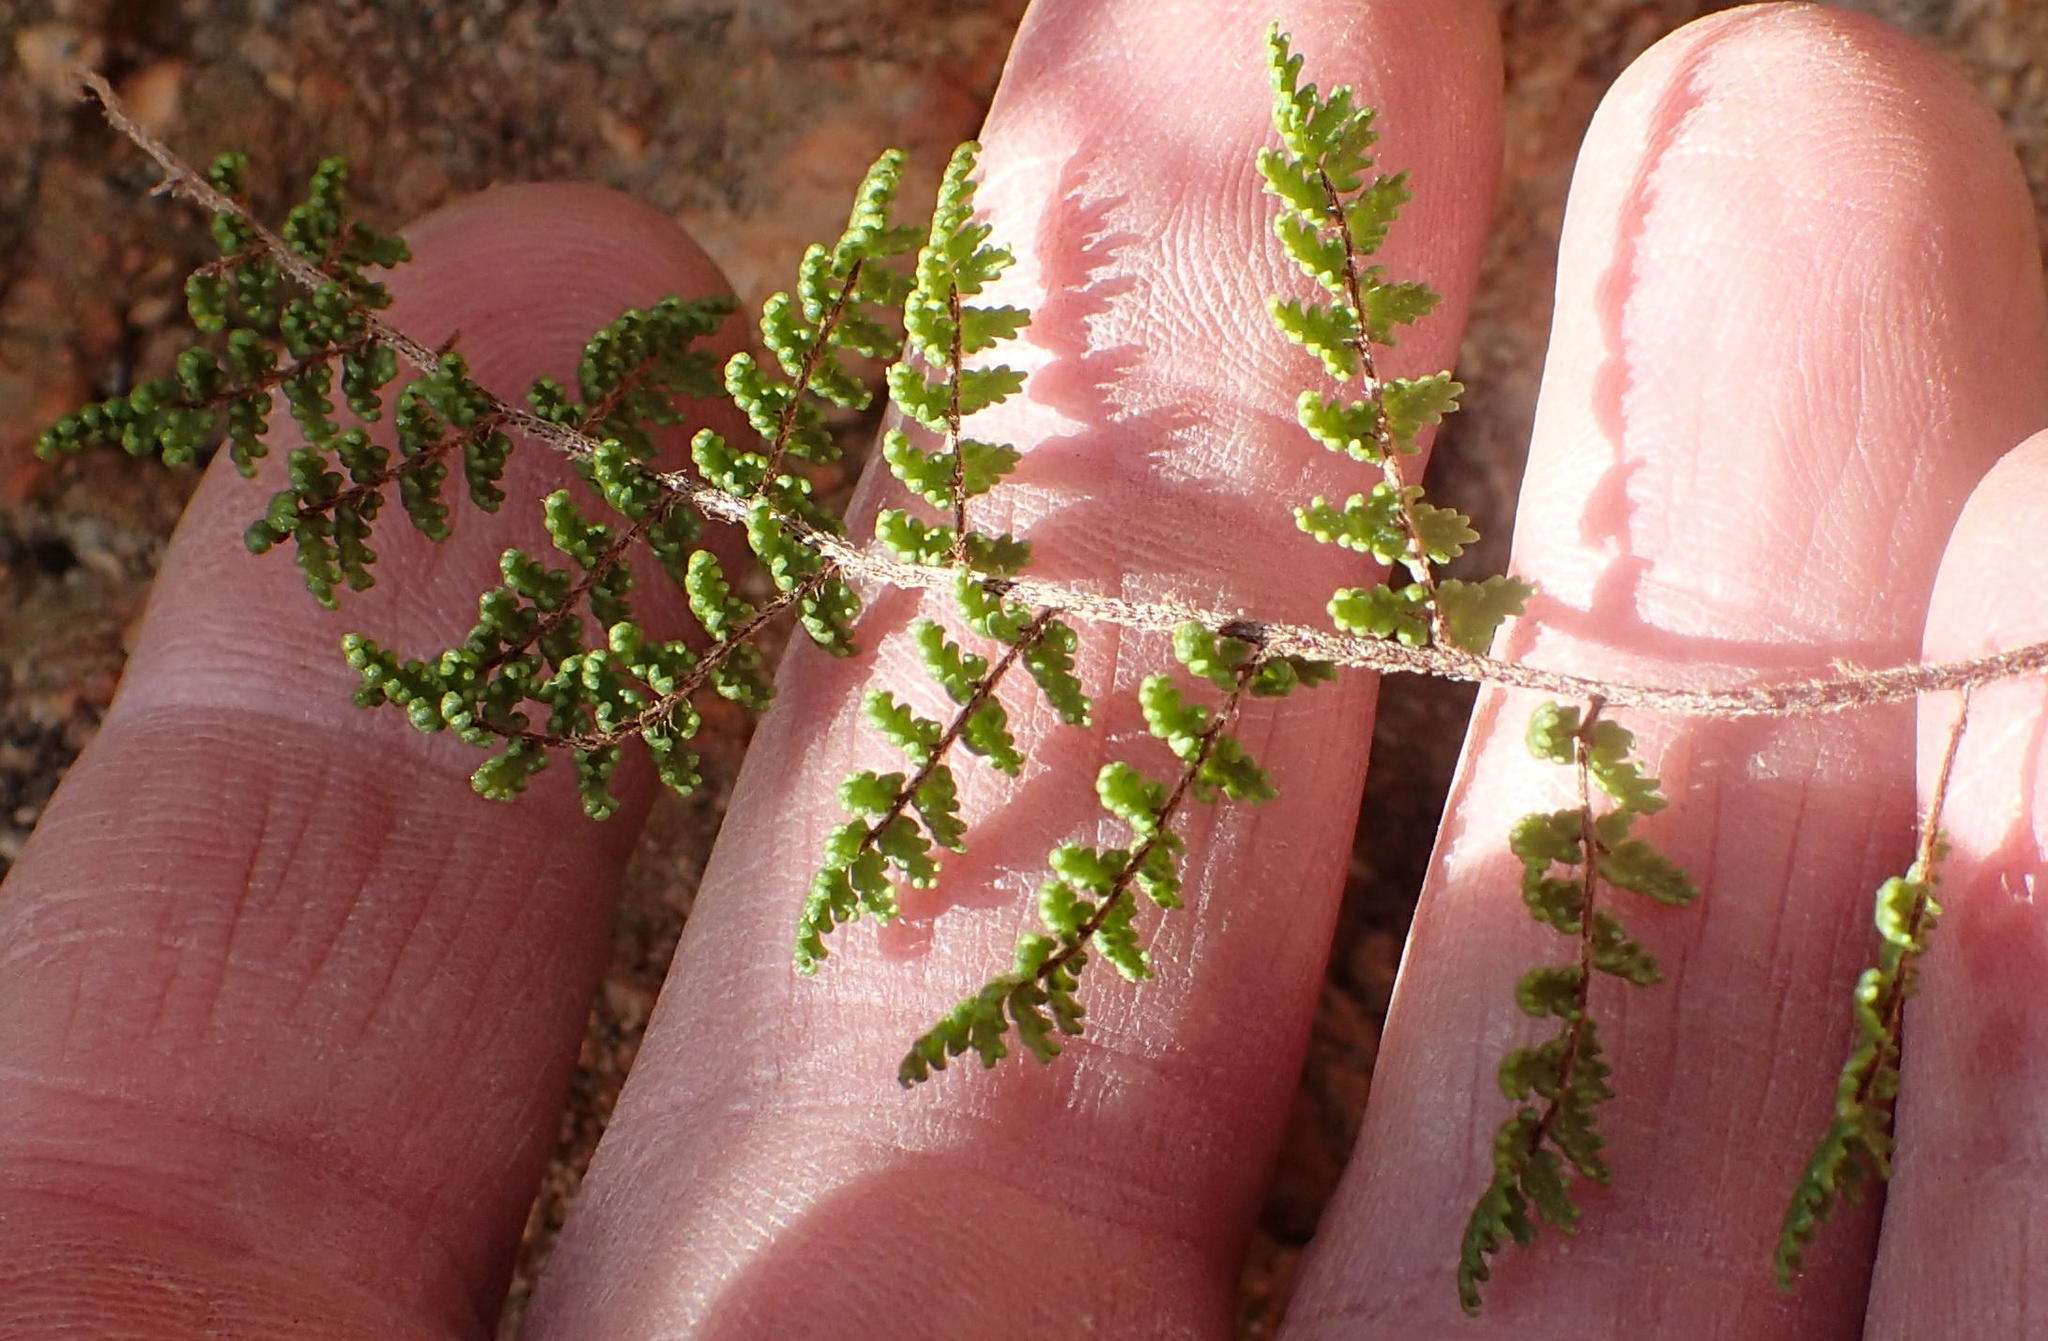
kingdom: Plantae
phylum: Tracheophyta
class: Polypodiopsida
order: Polypodiales
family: Pteridaceae
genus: Cheilanthes
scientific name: Cheilanthes parviloba
